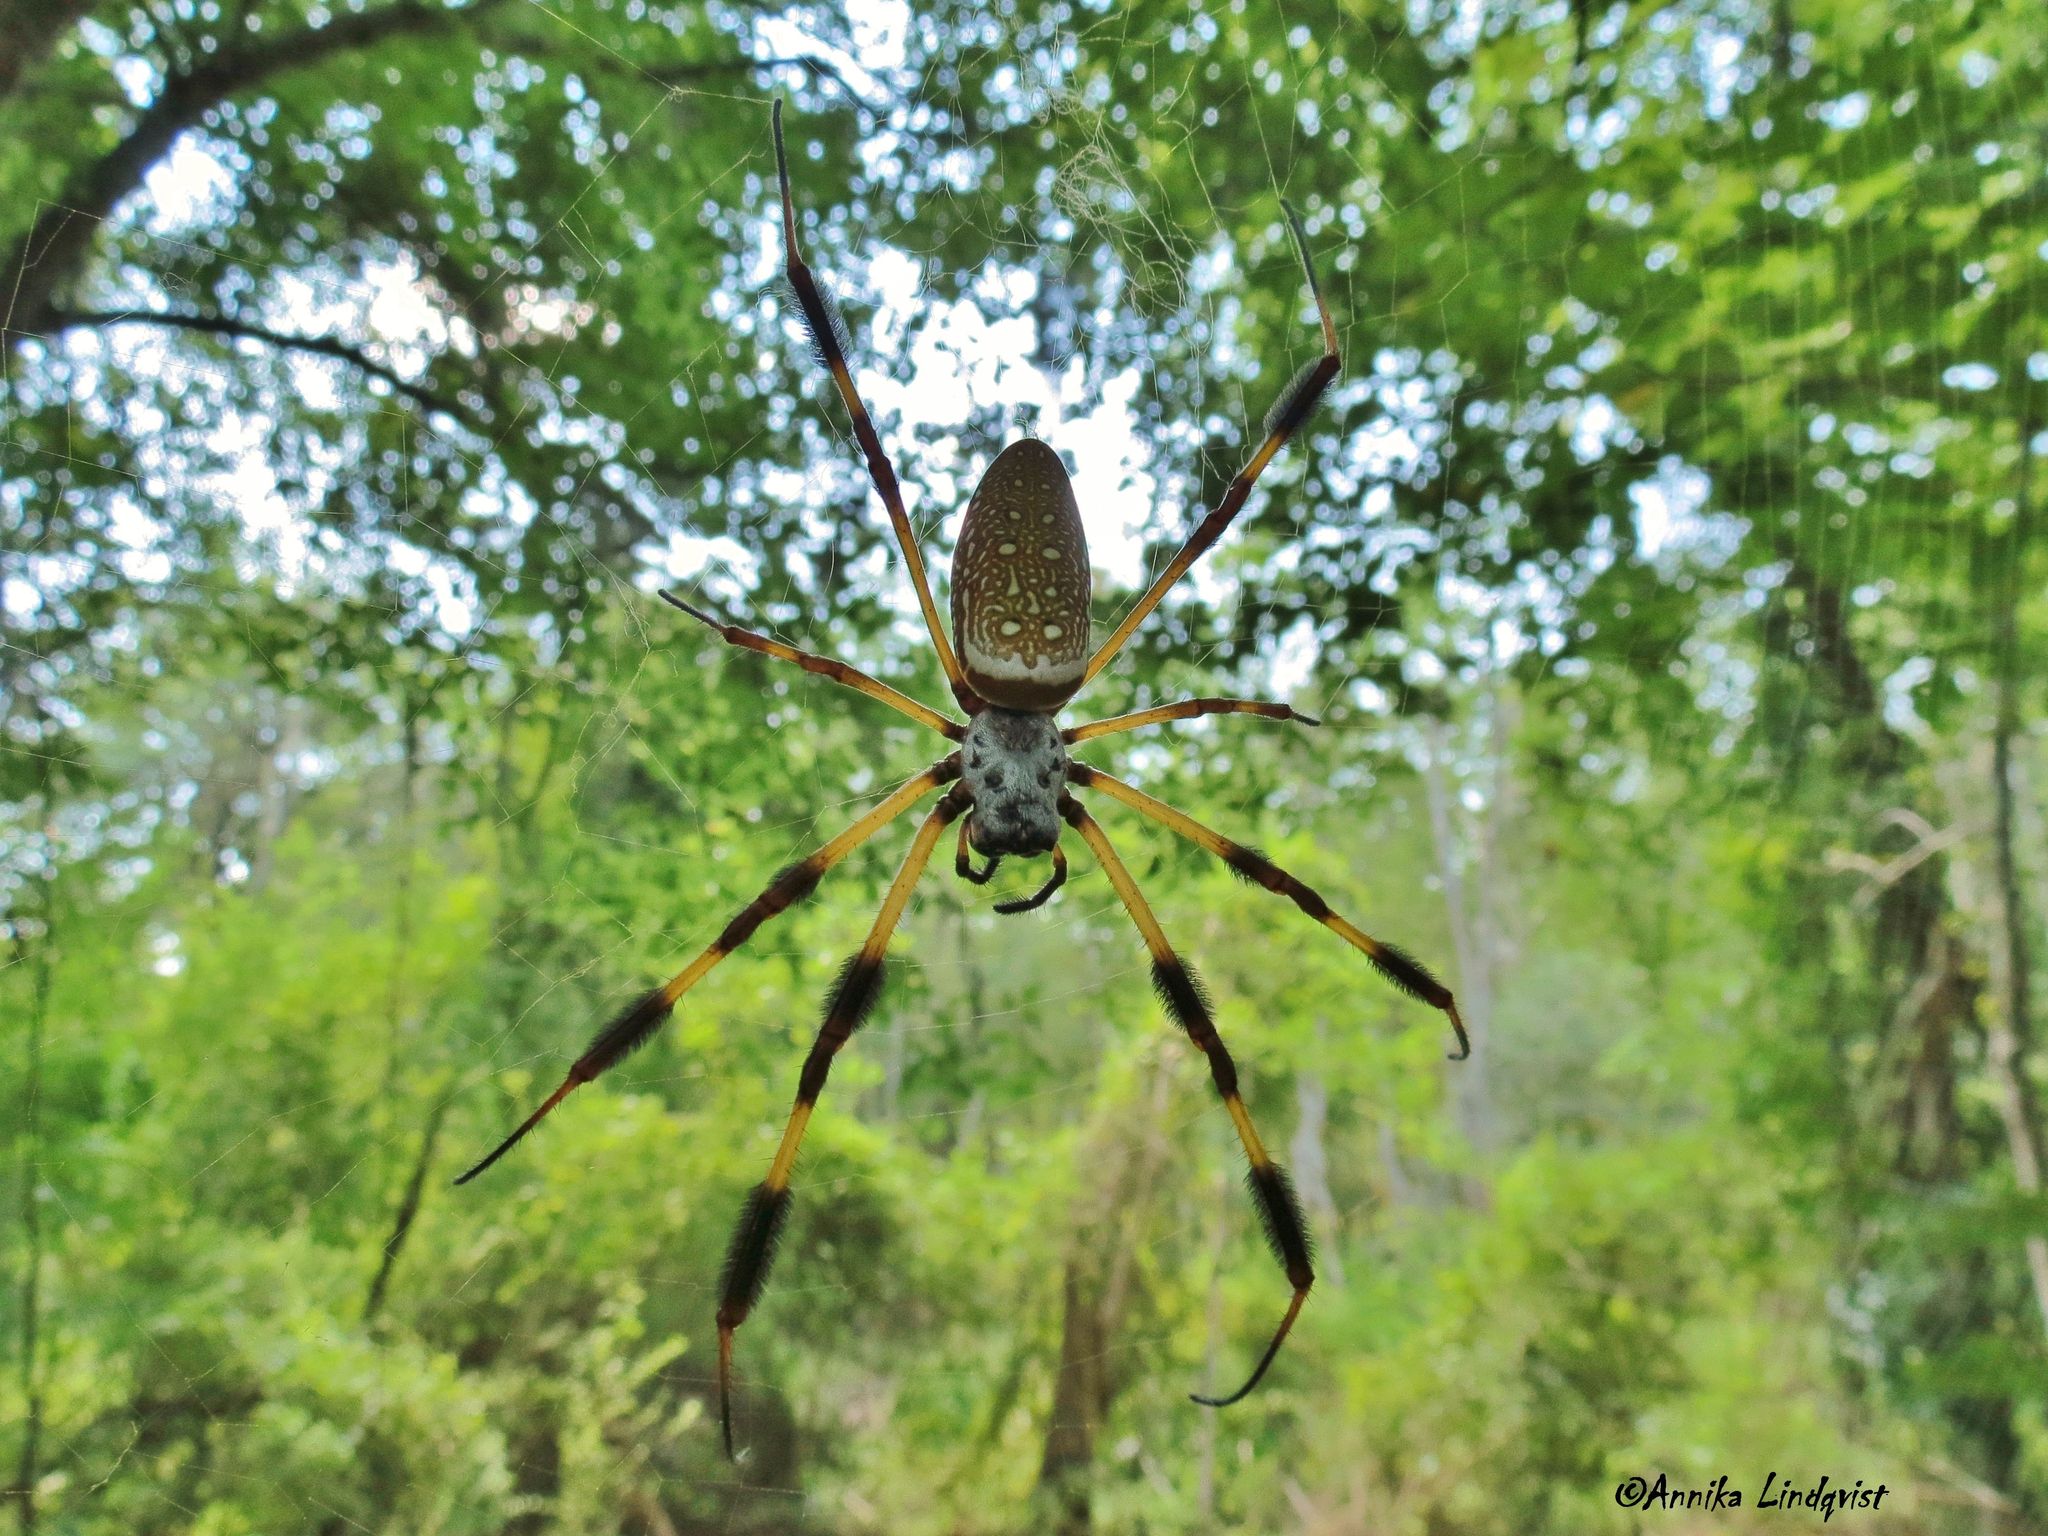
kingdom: Animalia
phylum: Arthropoda
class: Arachnida
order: Araneae
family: Araneidae
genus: Trichonephila
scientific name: Trichonephila clavipes
